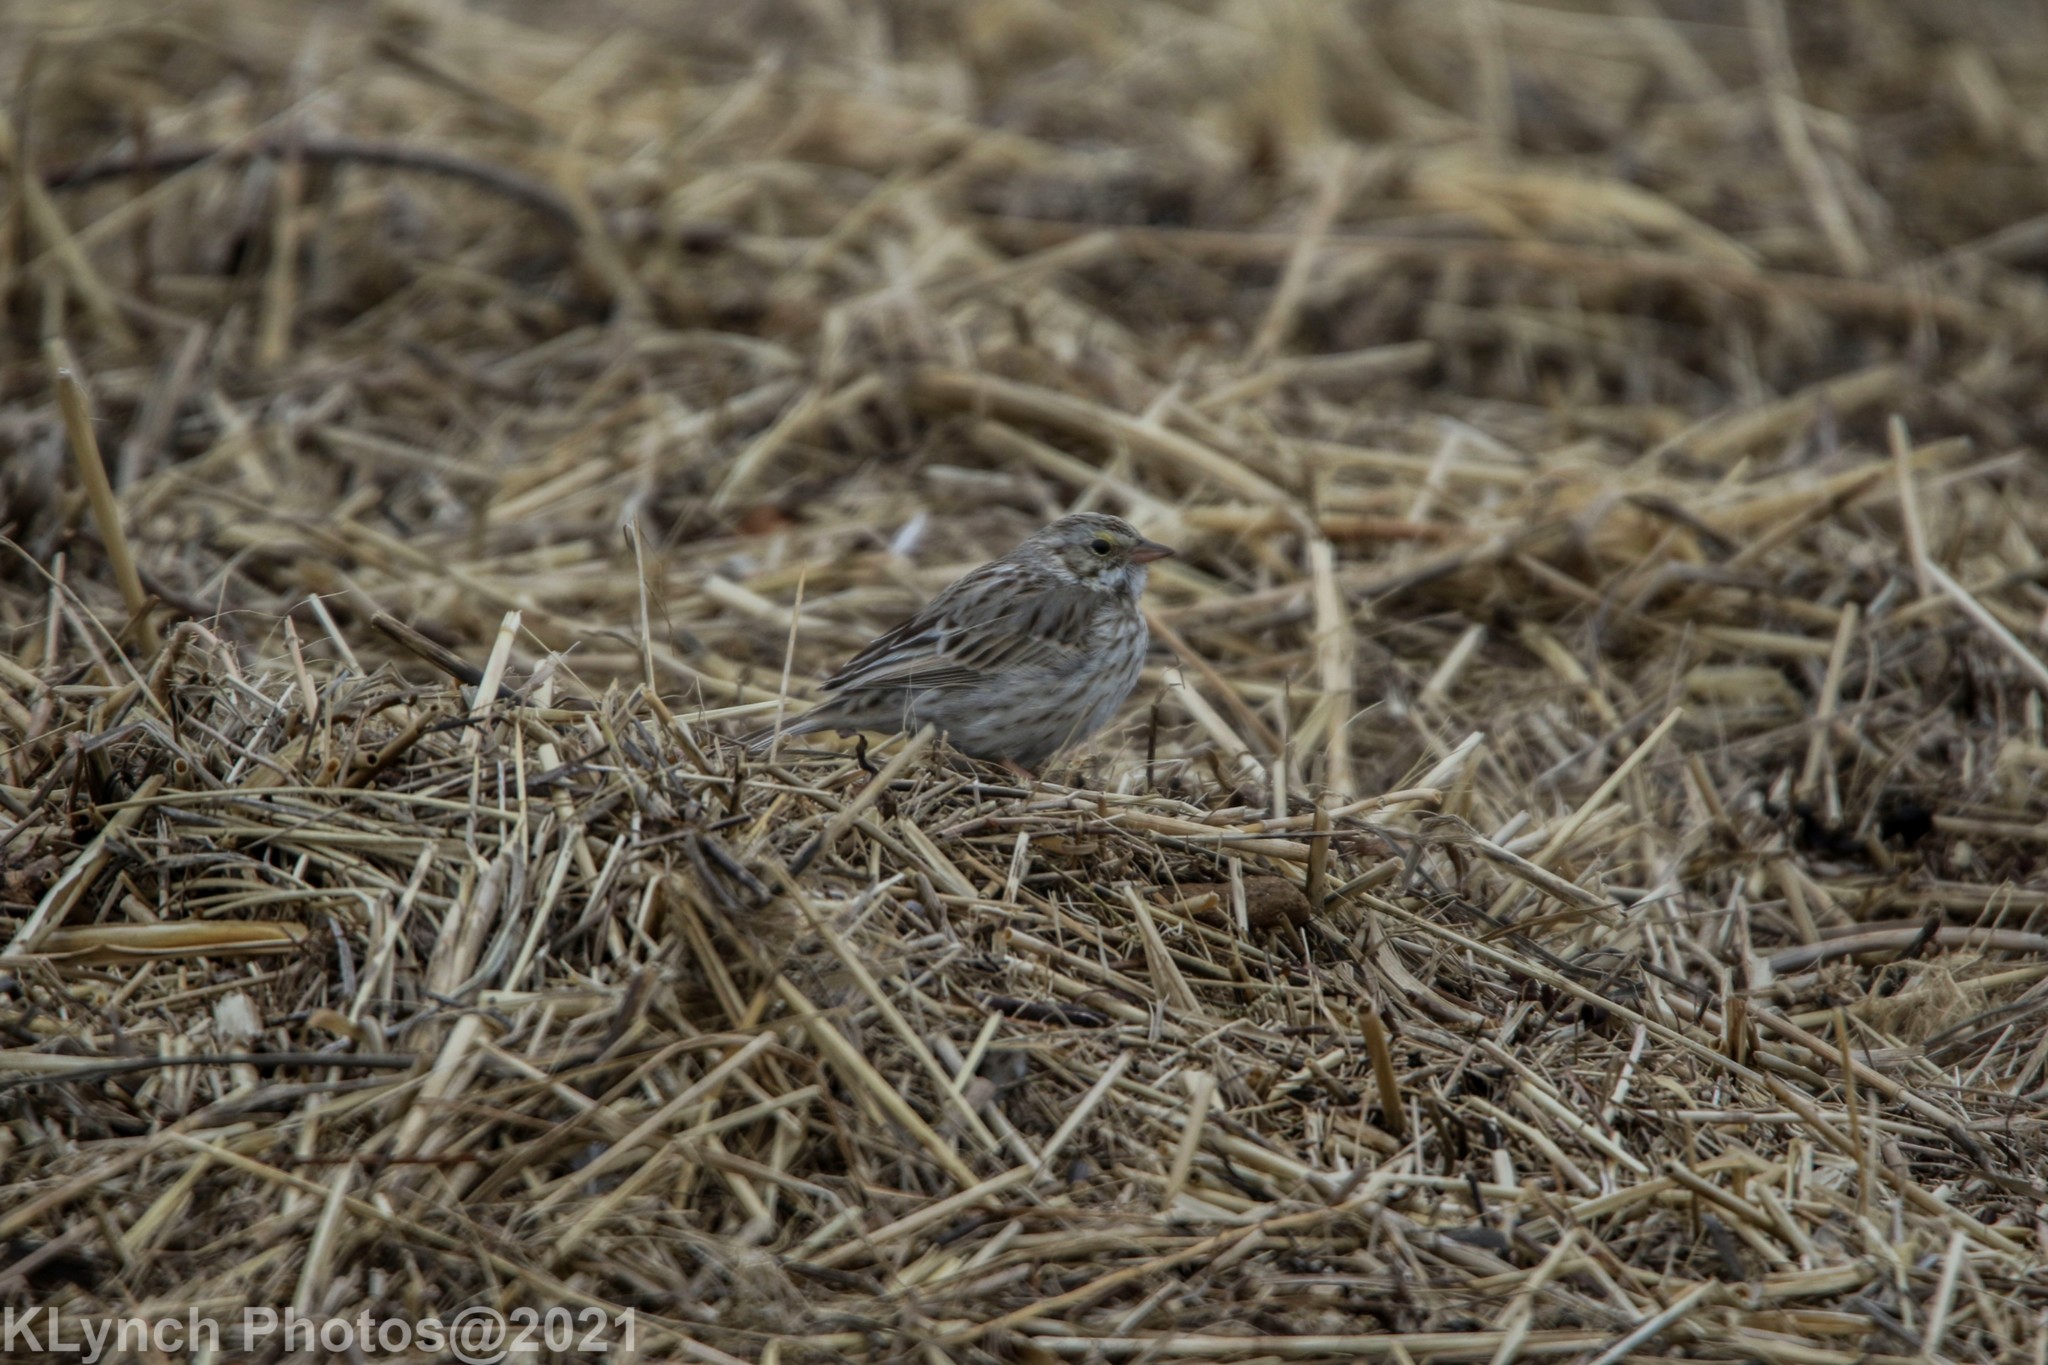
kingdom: Animalia
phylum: Chordata
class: Aves
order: Passeriformes
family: Passerellidae
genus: Passerculus
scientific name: Passerculus sandwichensis
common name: Savannah sparrow
